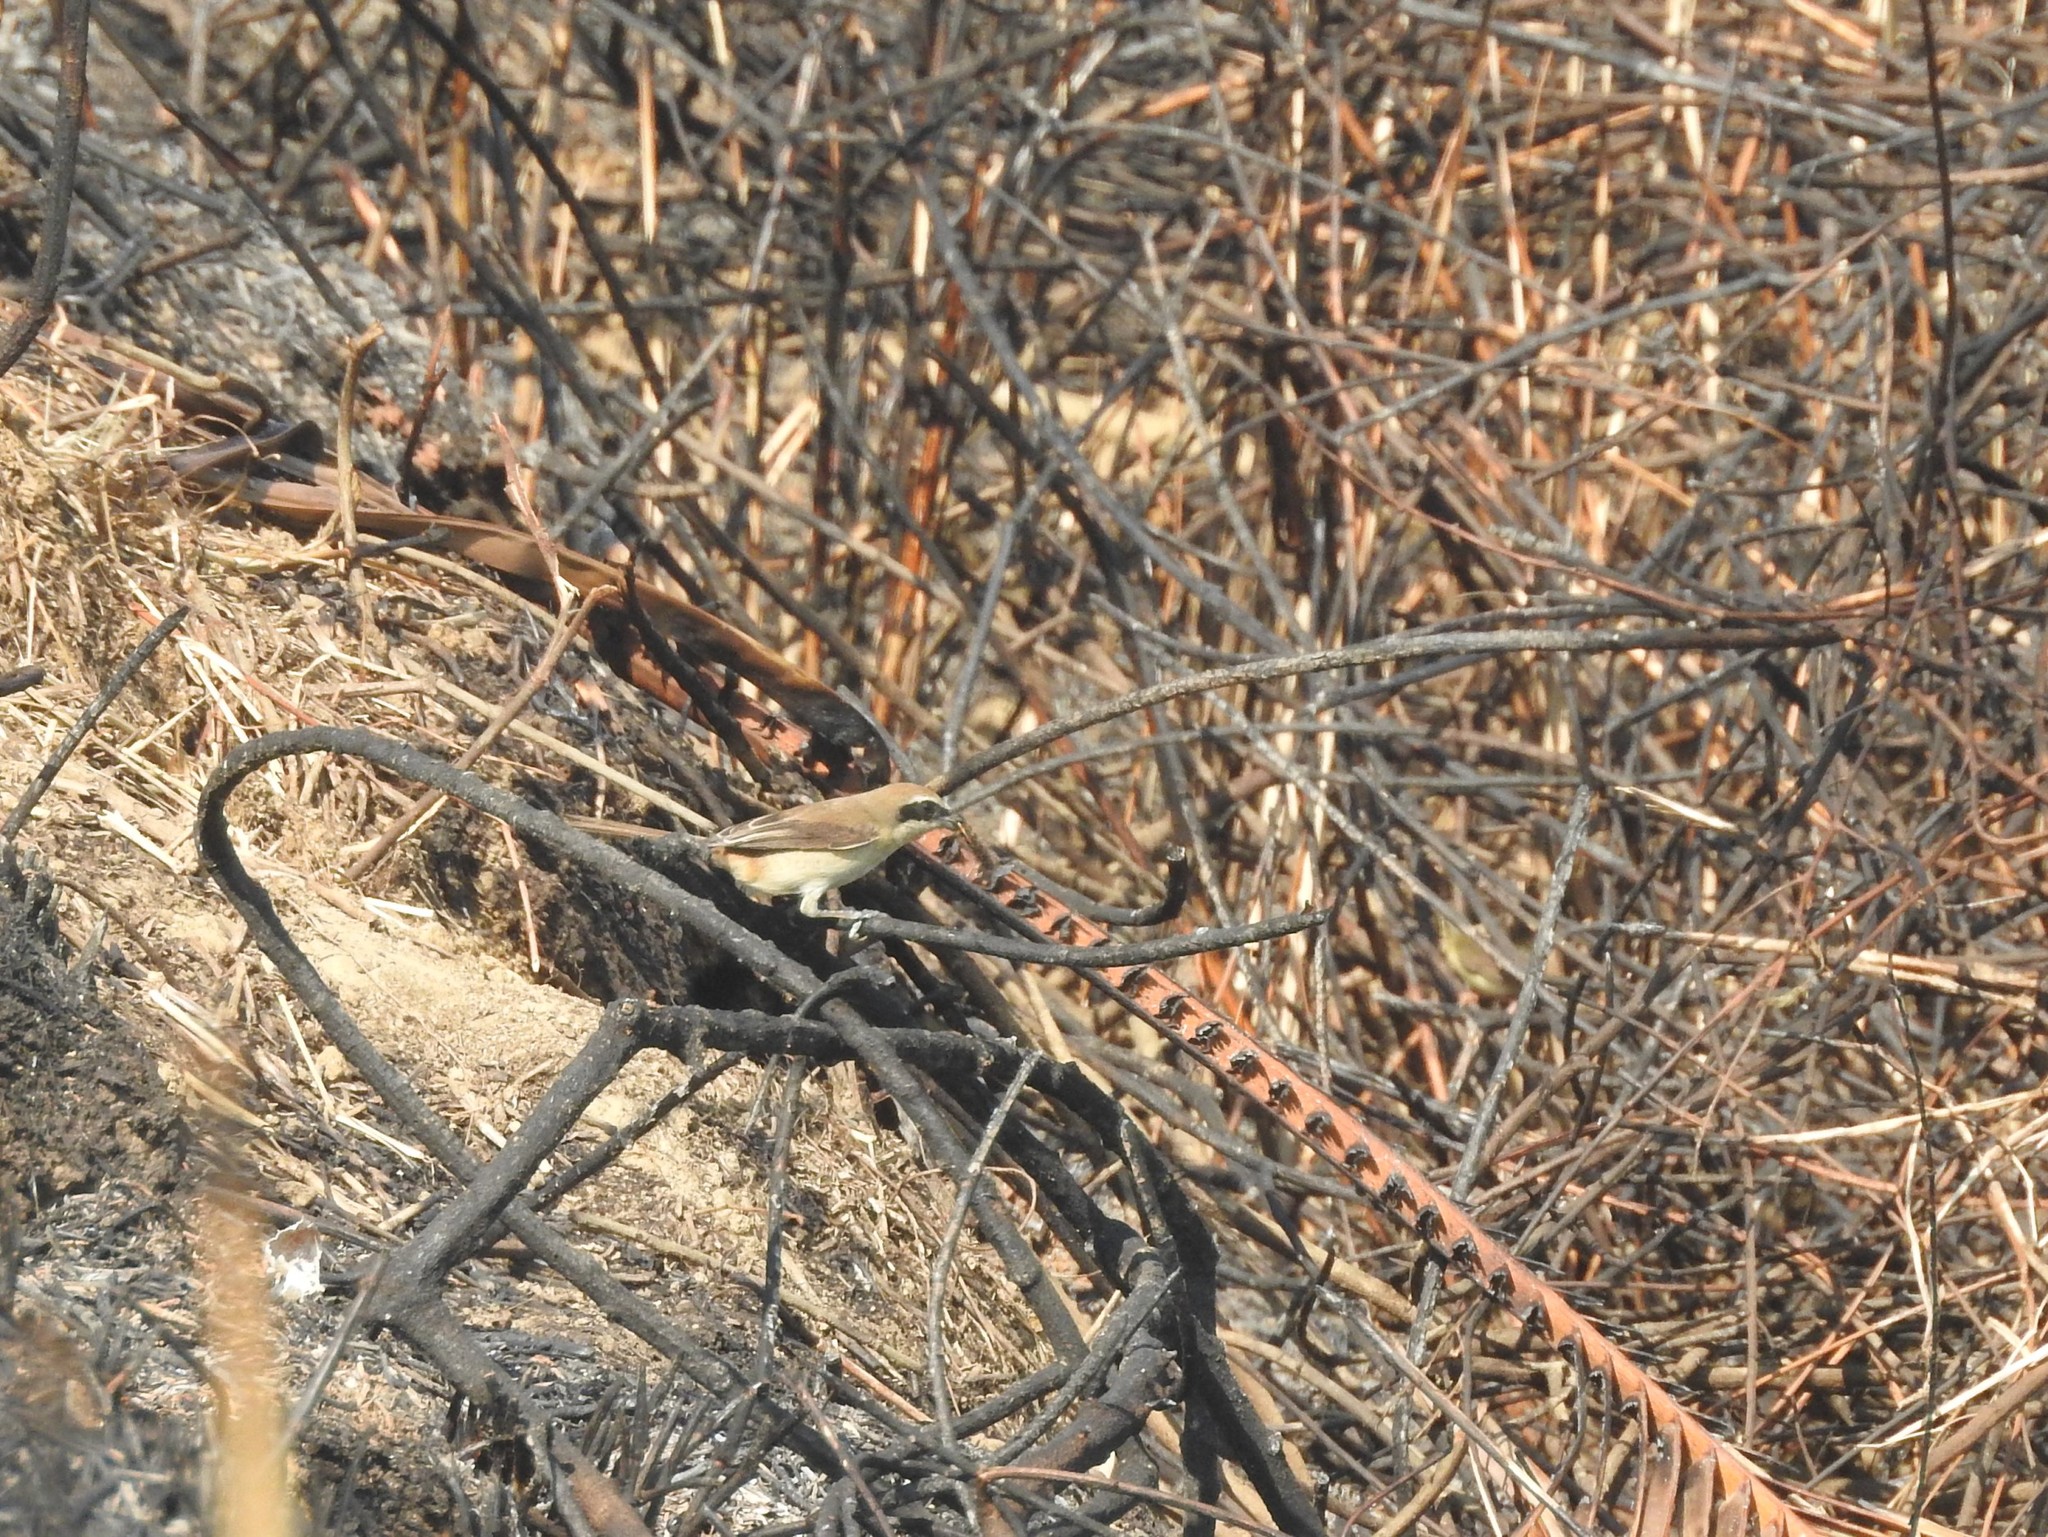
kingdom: Animalia
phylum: Chordata
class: Aves
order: Passeriformes
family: Laniidae
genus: Lanius
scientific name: Lanius cristatus
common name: Brown shrike
